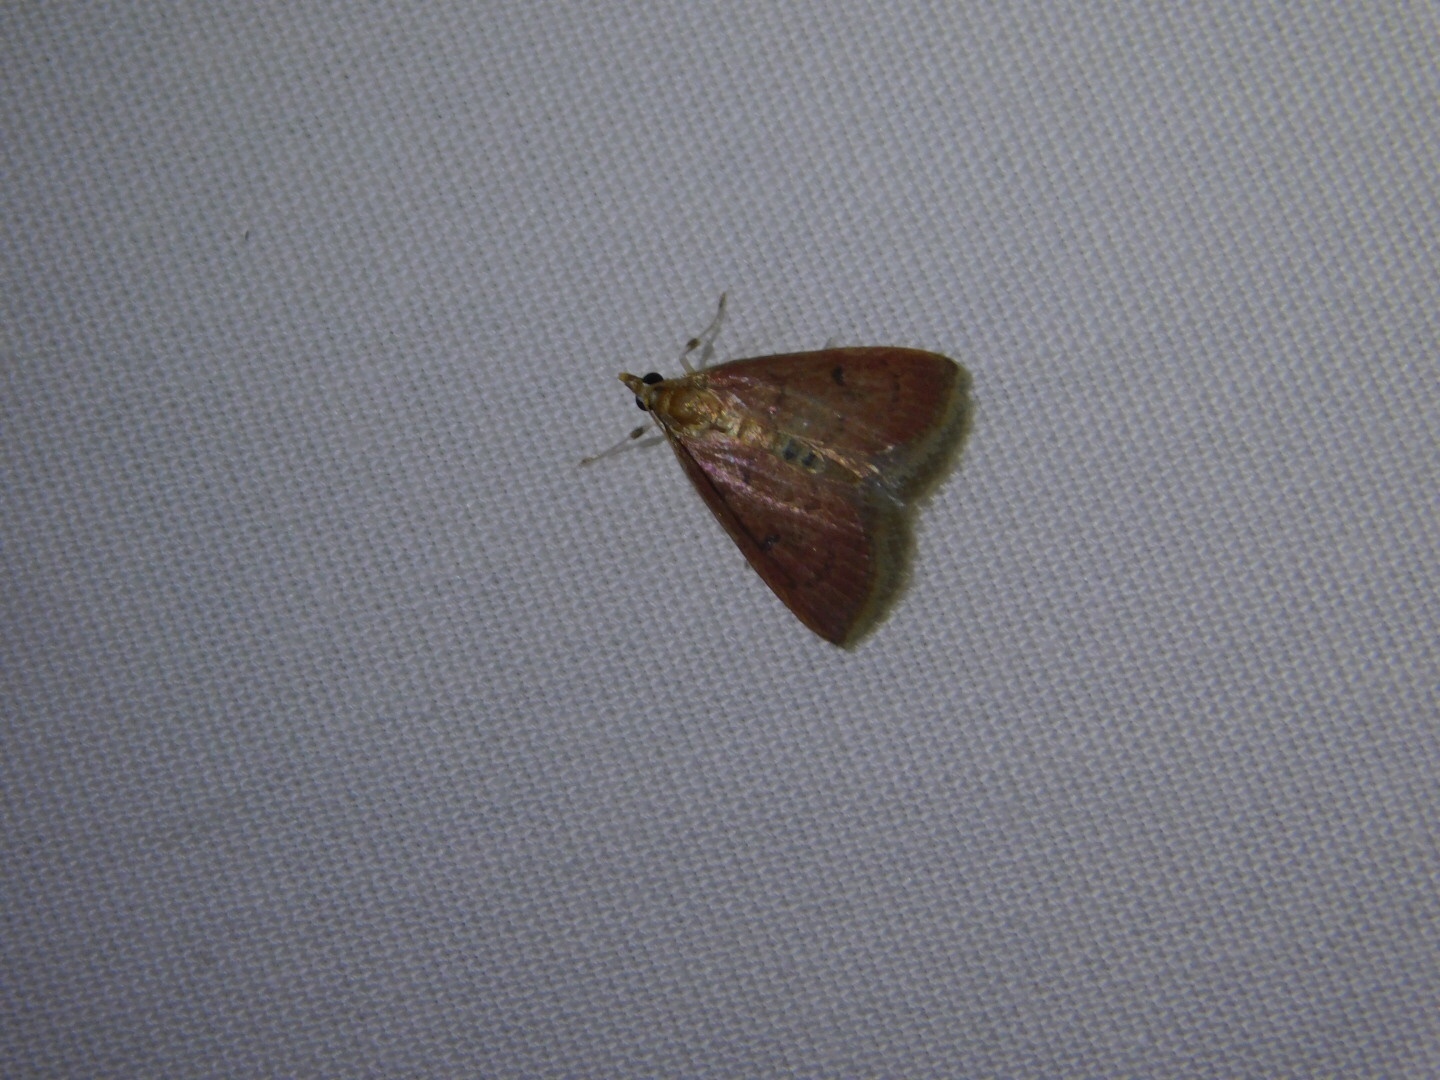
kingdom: Animalia
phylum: Arthropoda
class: Insecta
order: Lepidoptera
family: Crambidae
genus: Oenobotys
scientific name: Oenobotys vinotinctalis
